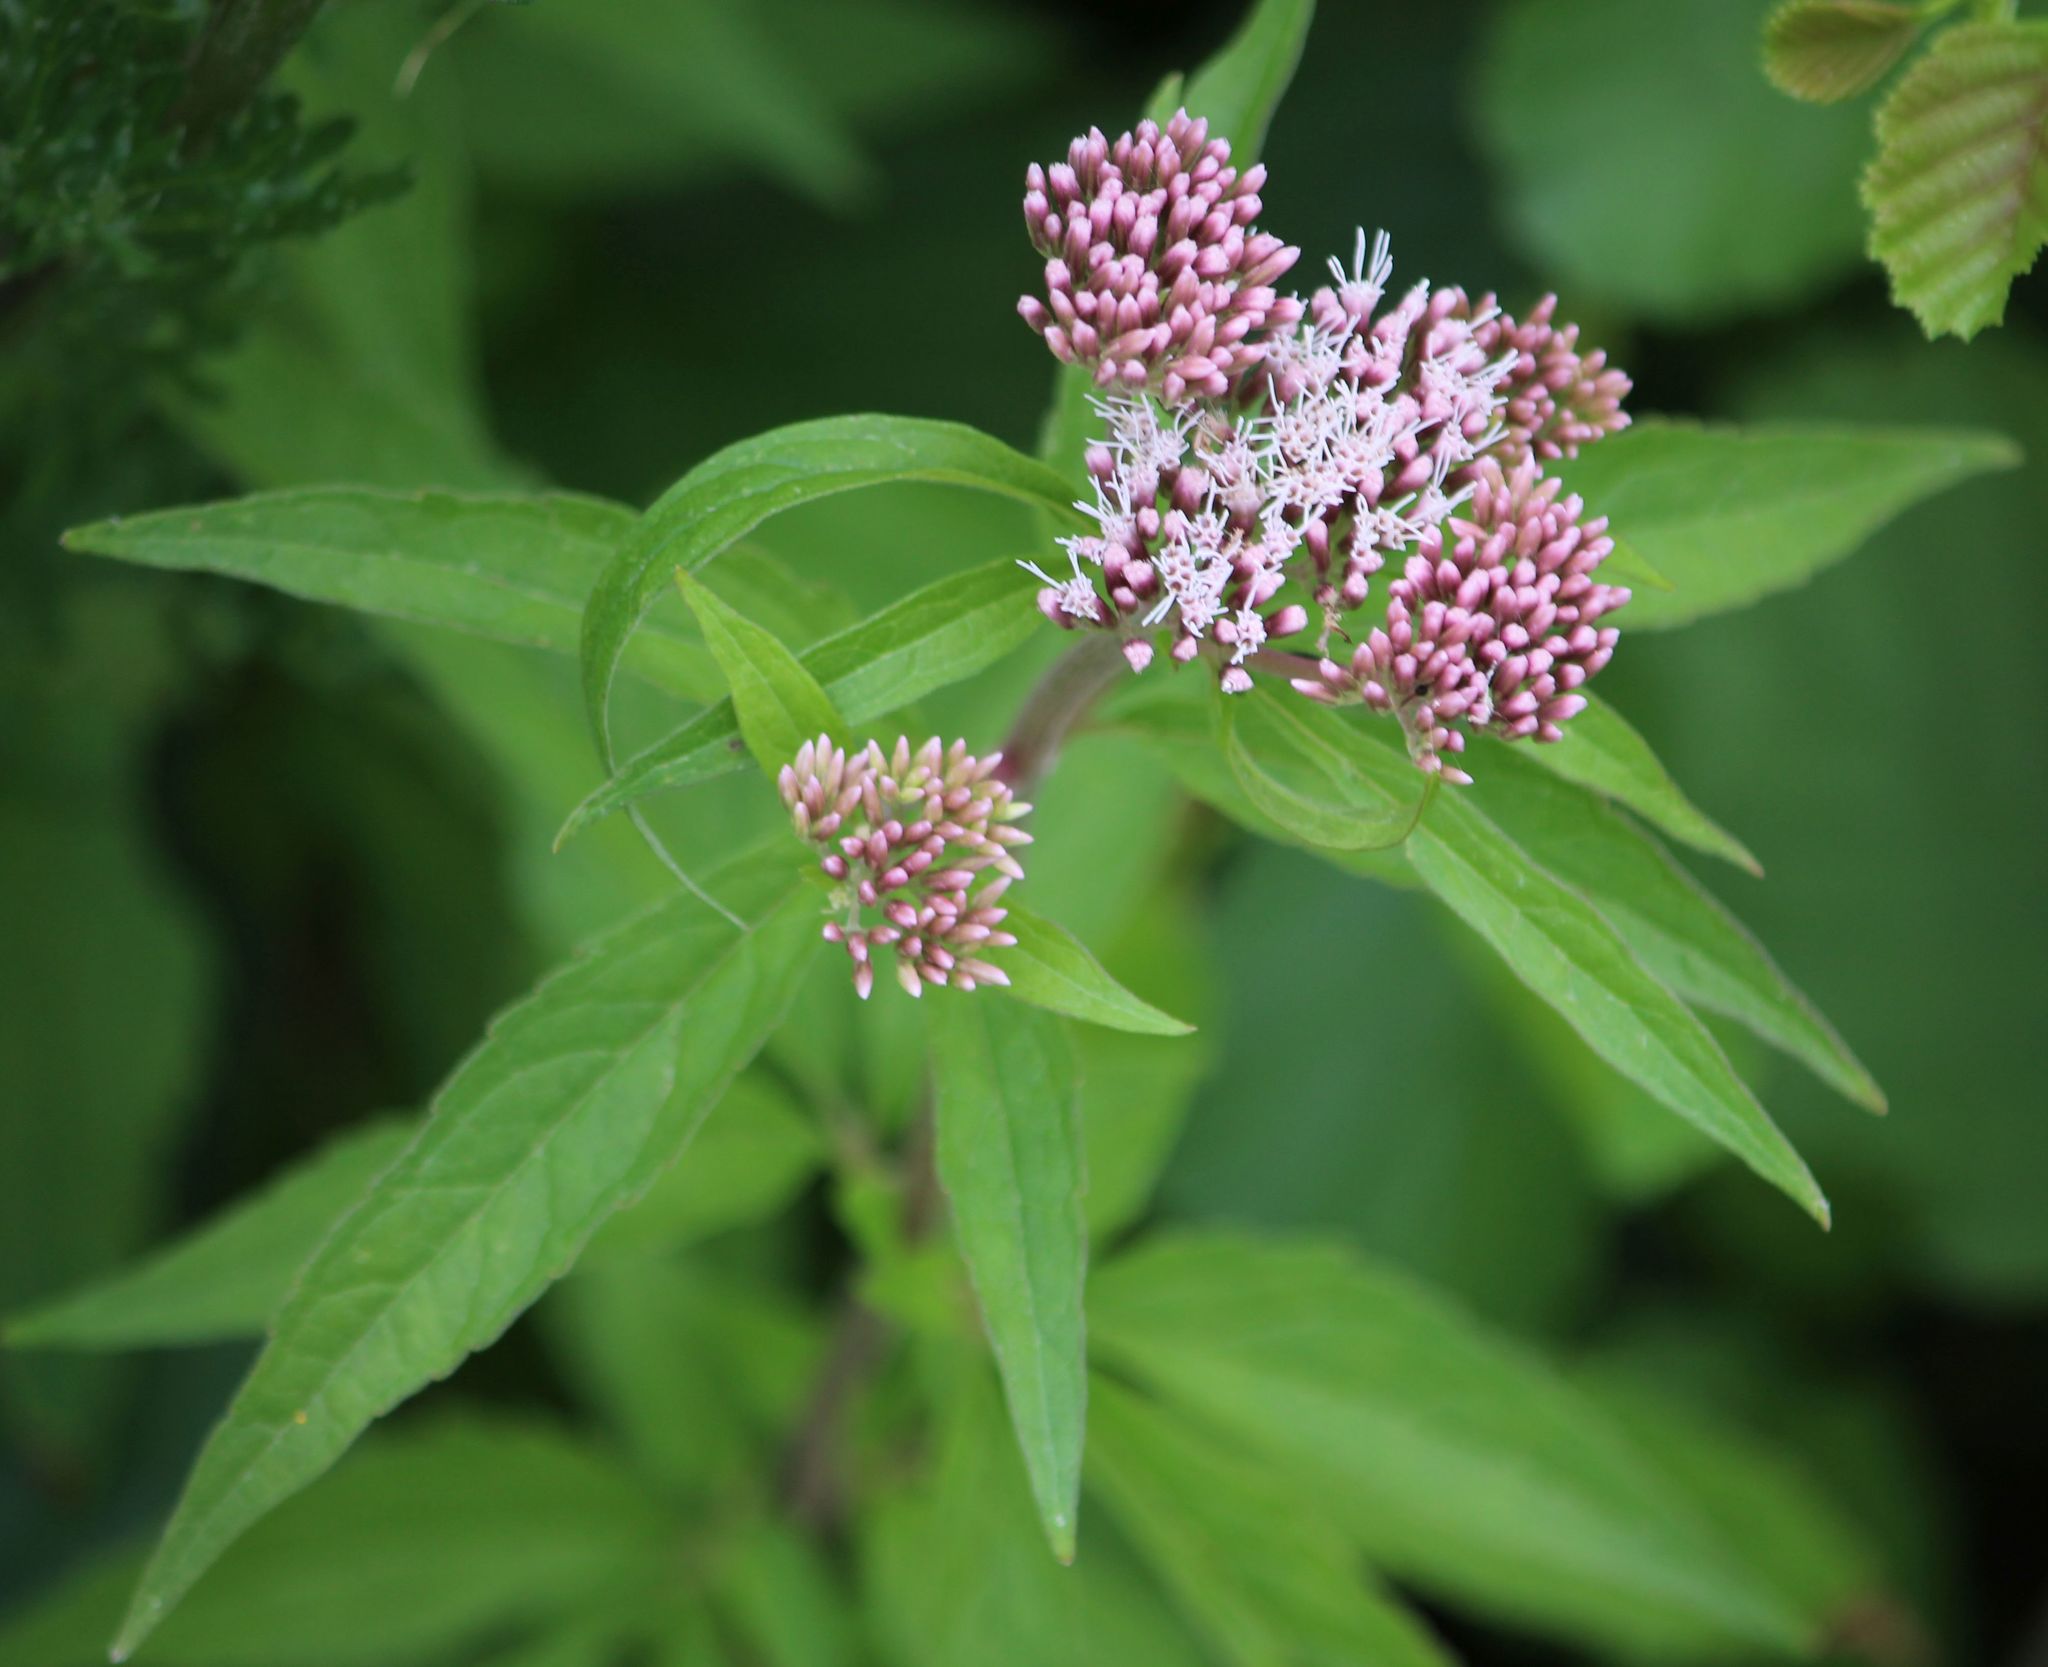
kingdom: Plantae
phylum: Tracheophyta
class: Magnoliopsida
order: Asterales
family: Asteraceae
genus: Eupatorium
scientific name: Eupatorium cannabinum
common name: Hemp-agrimony
